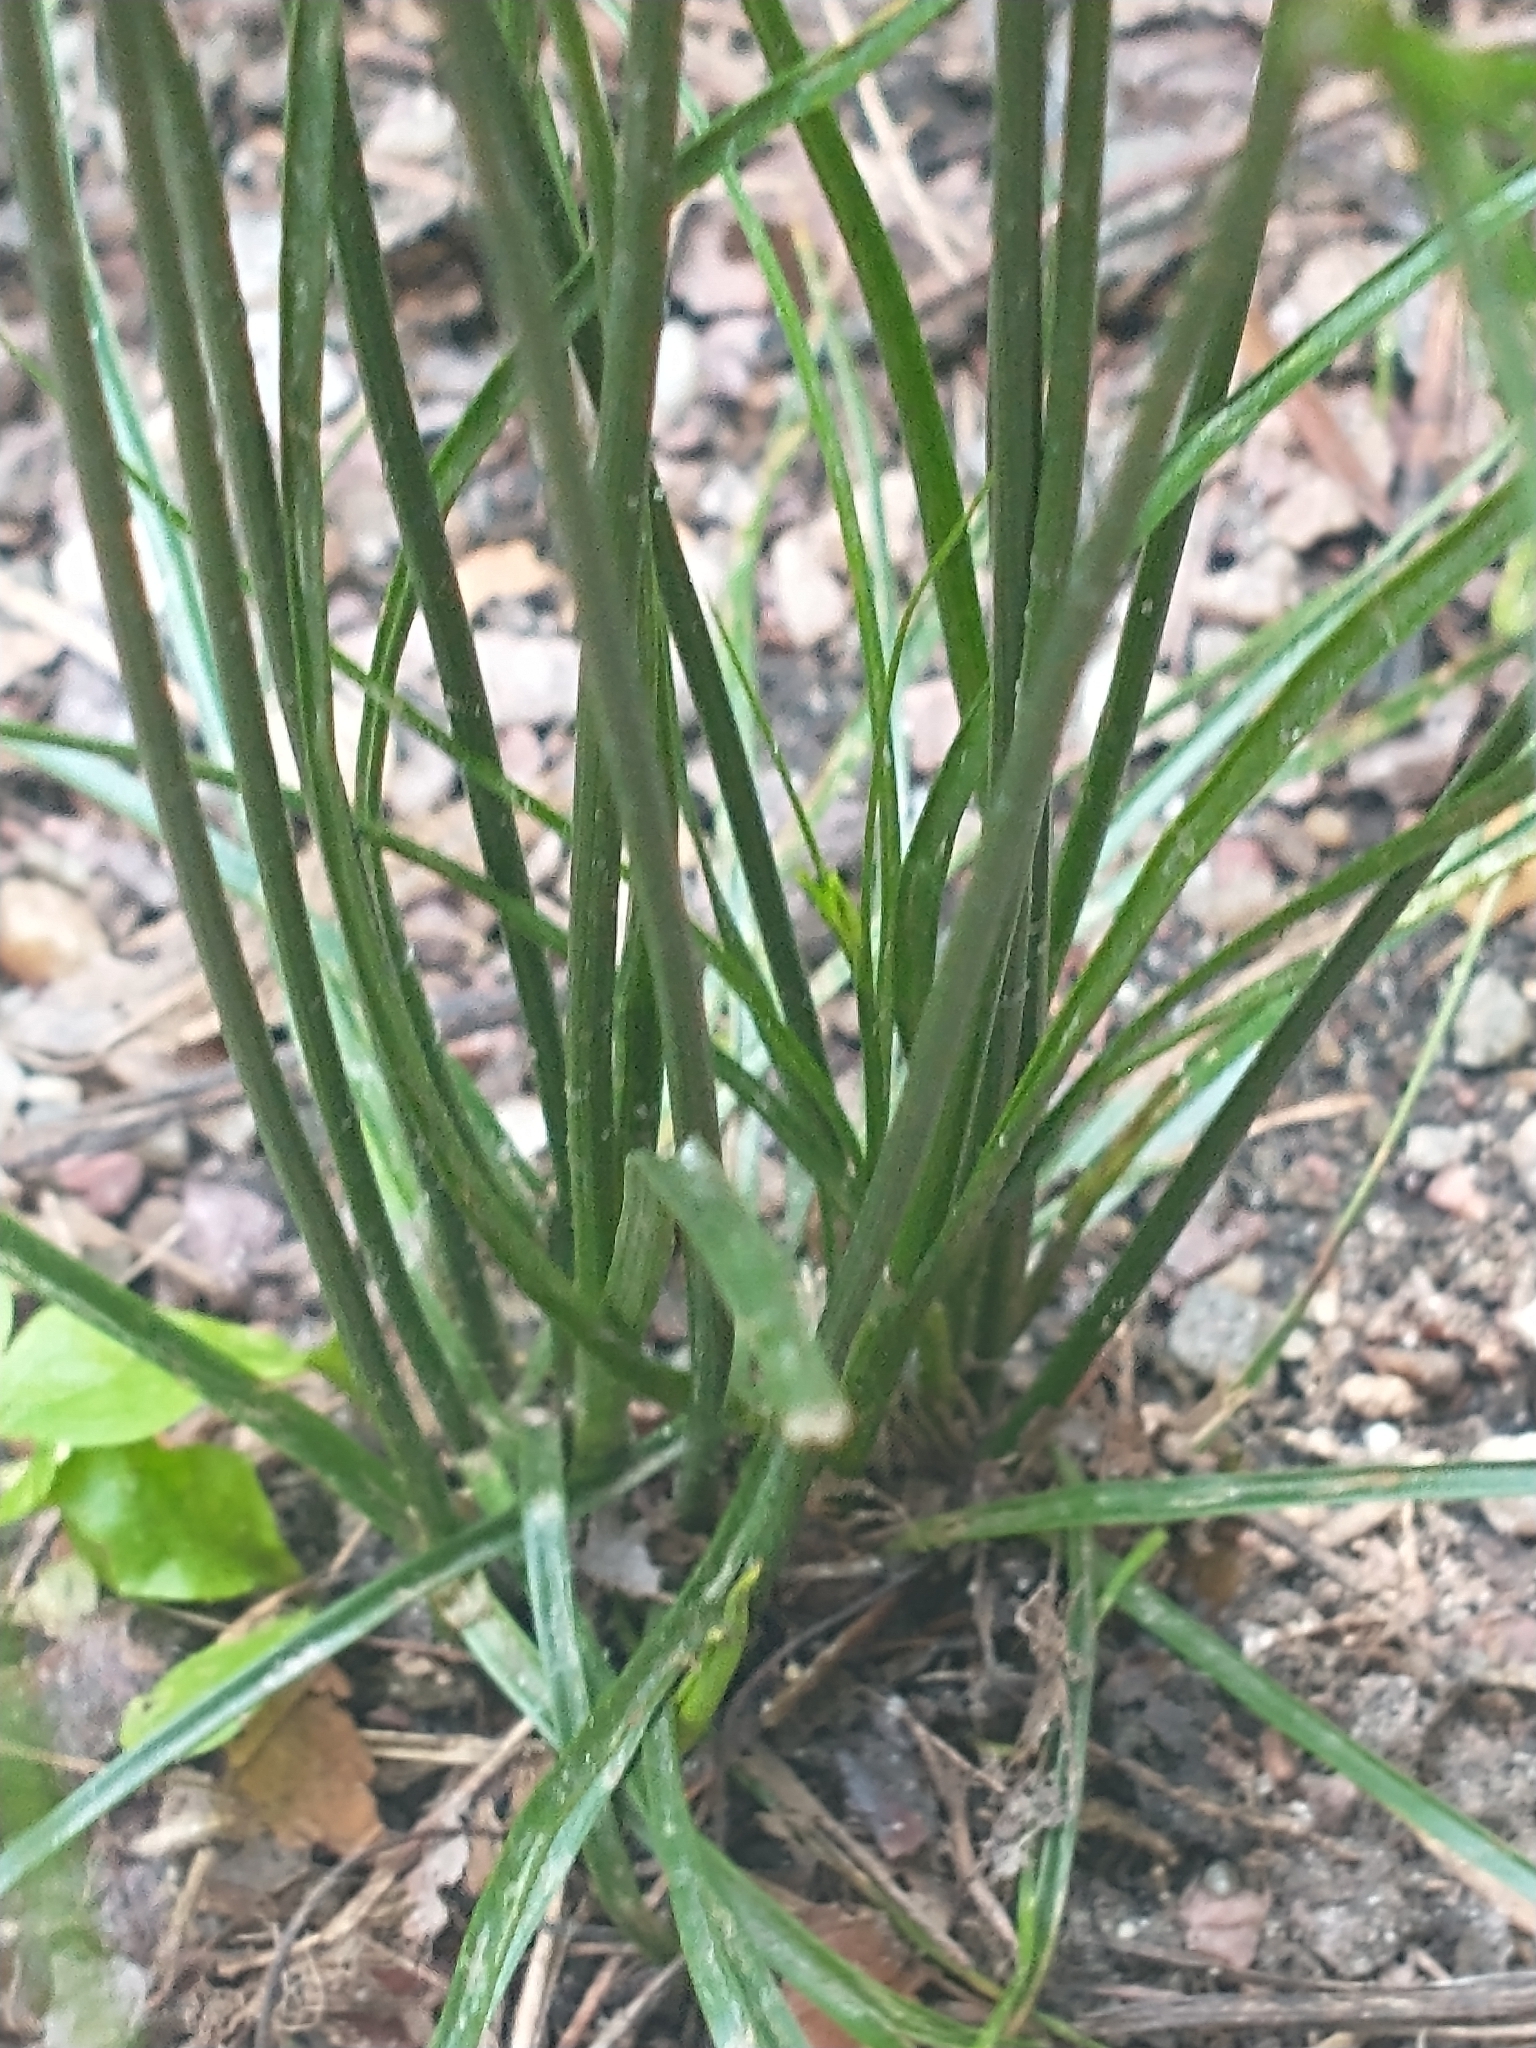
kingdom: Plantae
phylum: Tracheophyta
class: Liliopsida
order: Poales
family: Juncaceae
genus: Juncus
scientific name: Juncus tenuis
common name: Slender rush
